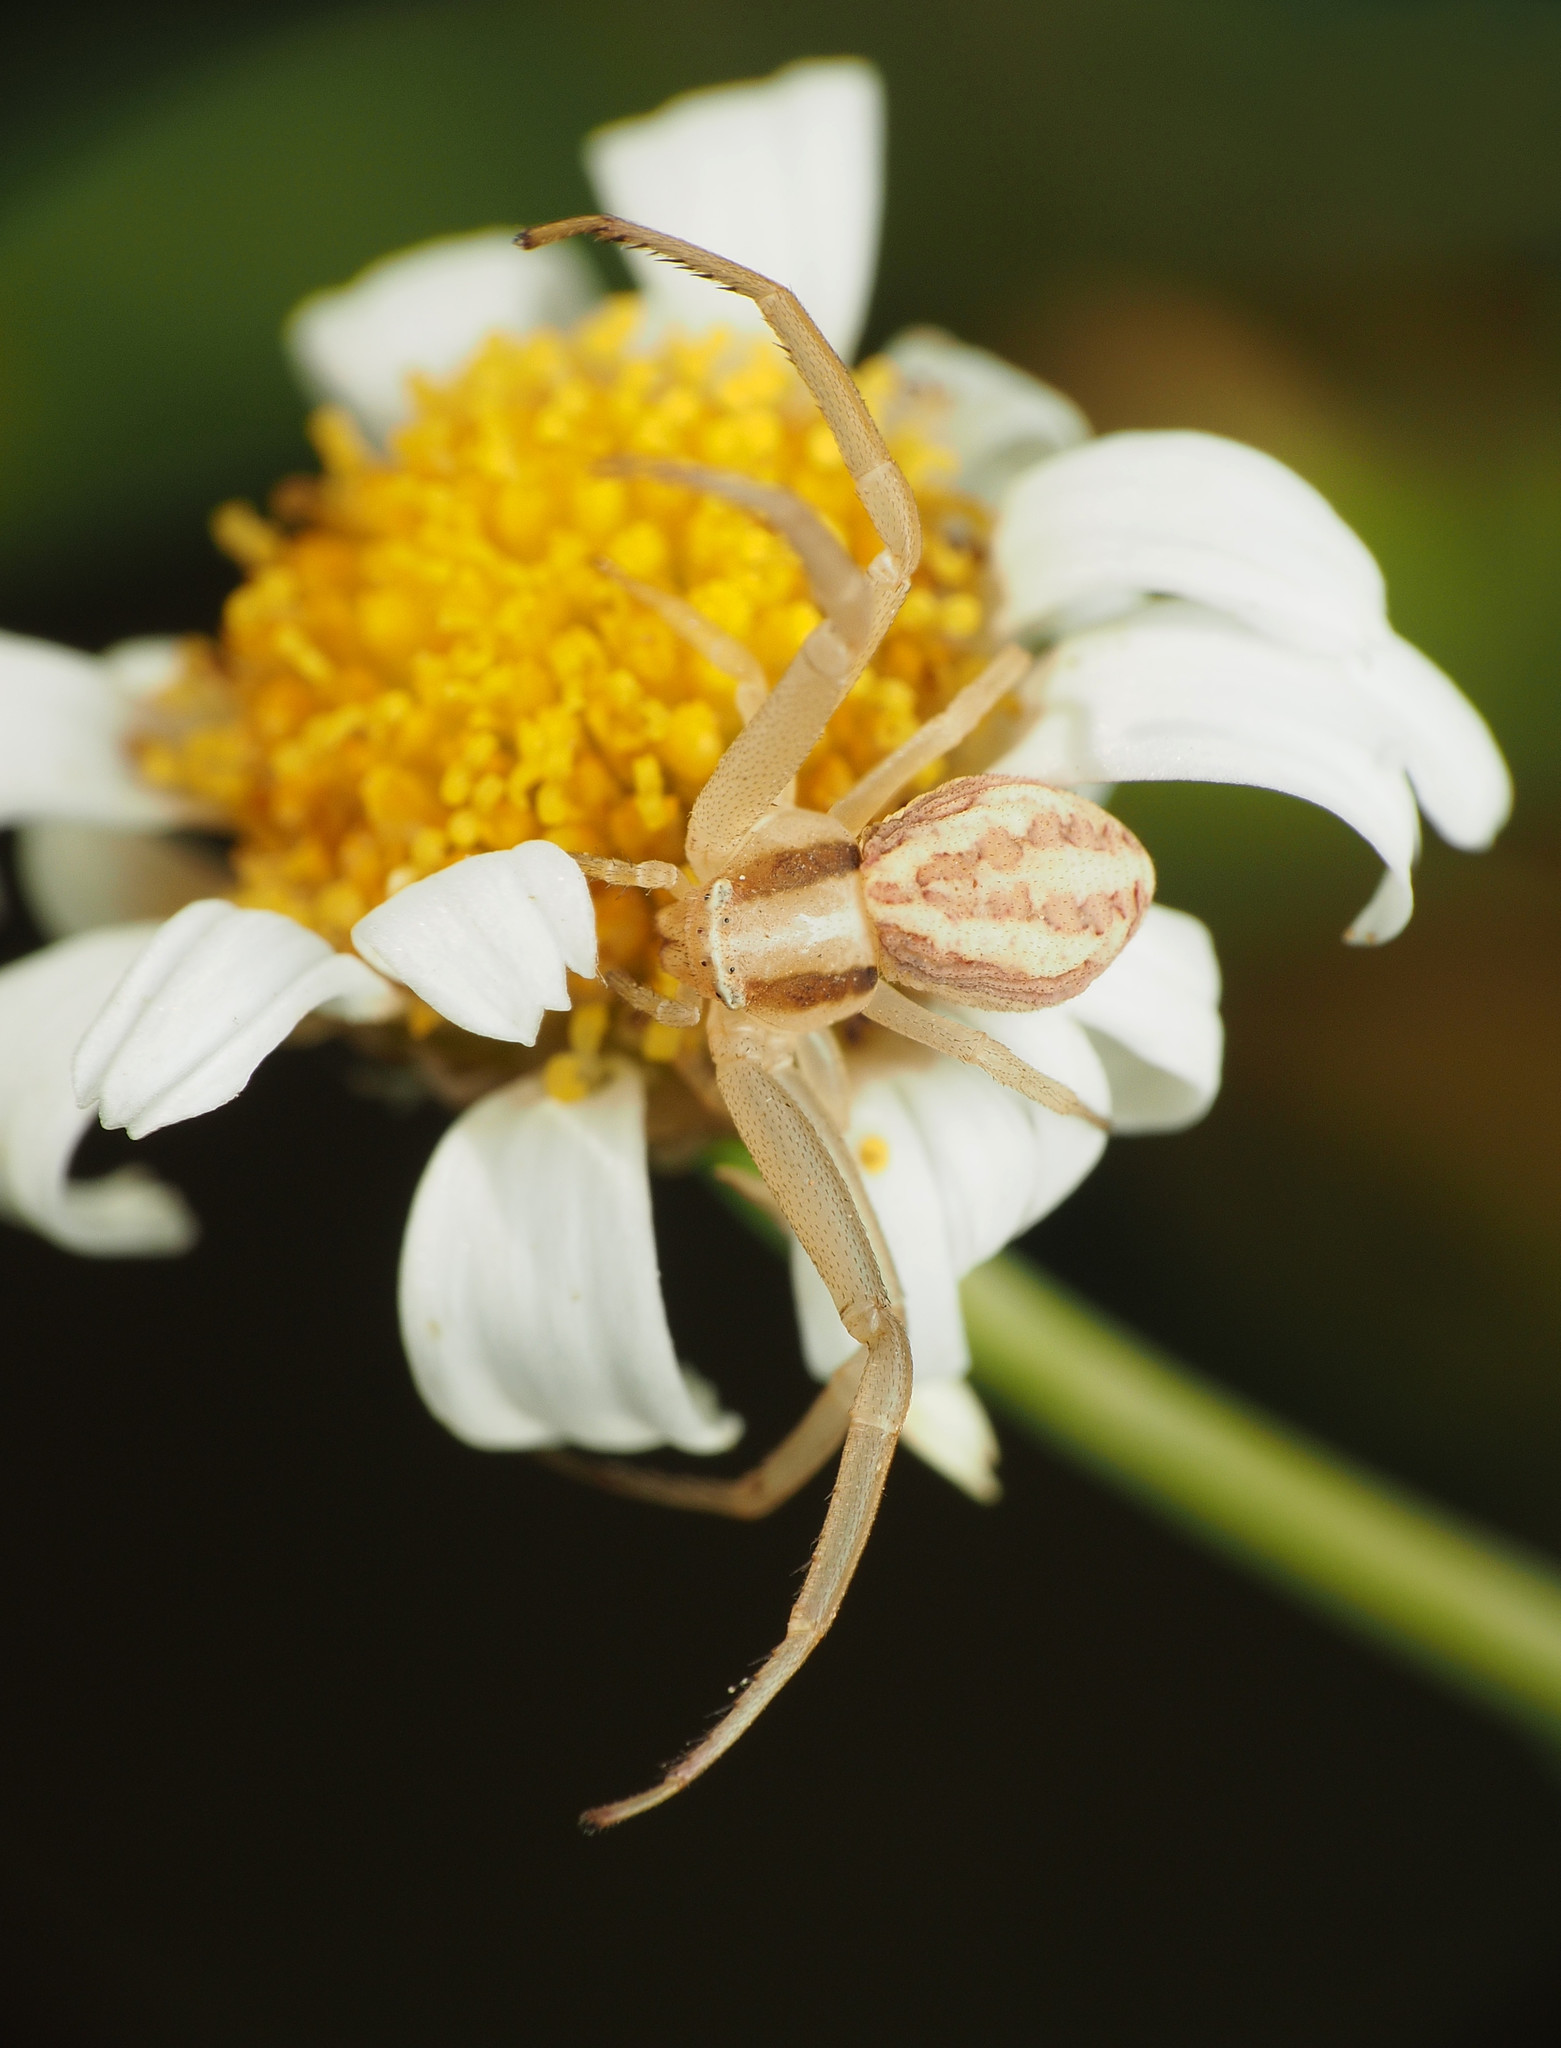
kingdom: Animalia
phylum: Arthropoda
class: Arachnida
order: Araneae
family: Thomisidae
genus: Runcinia
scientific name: Runcinia grammica
